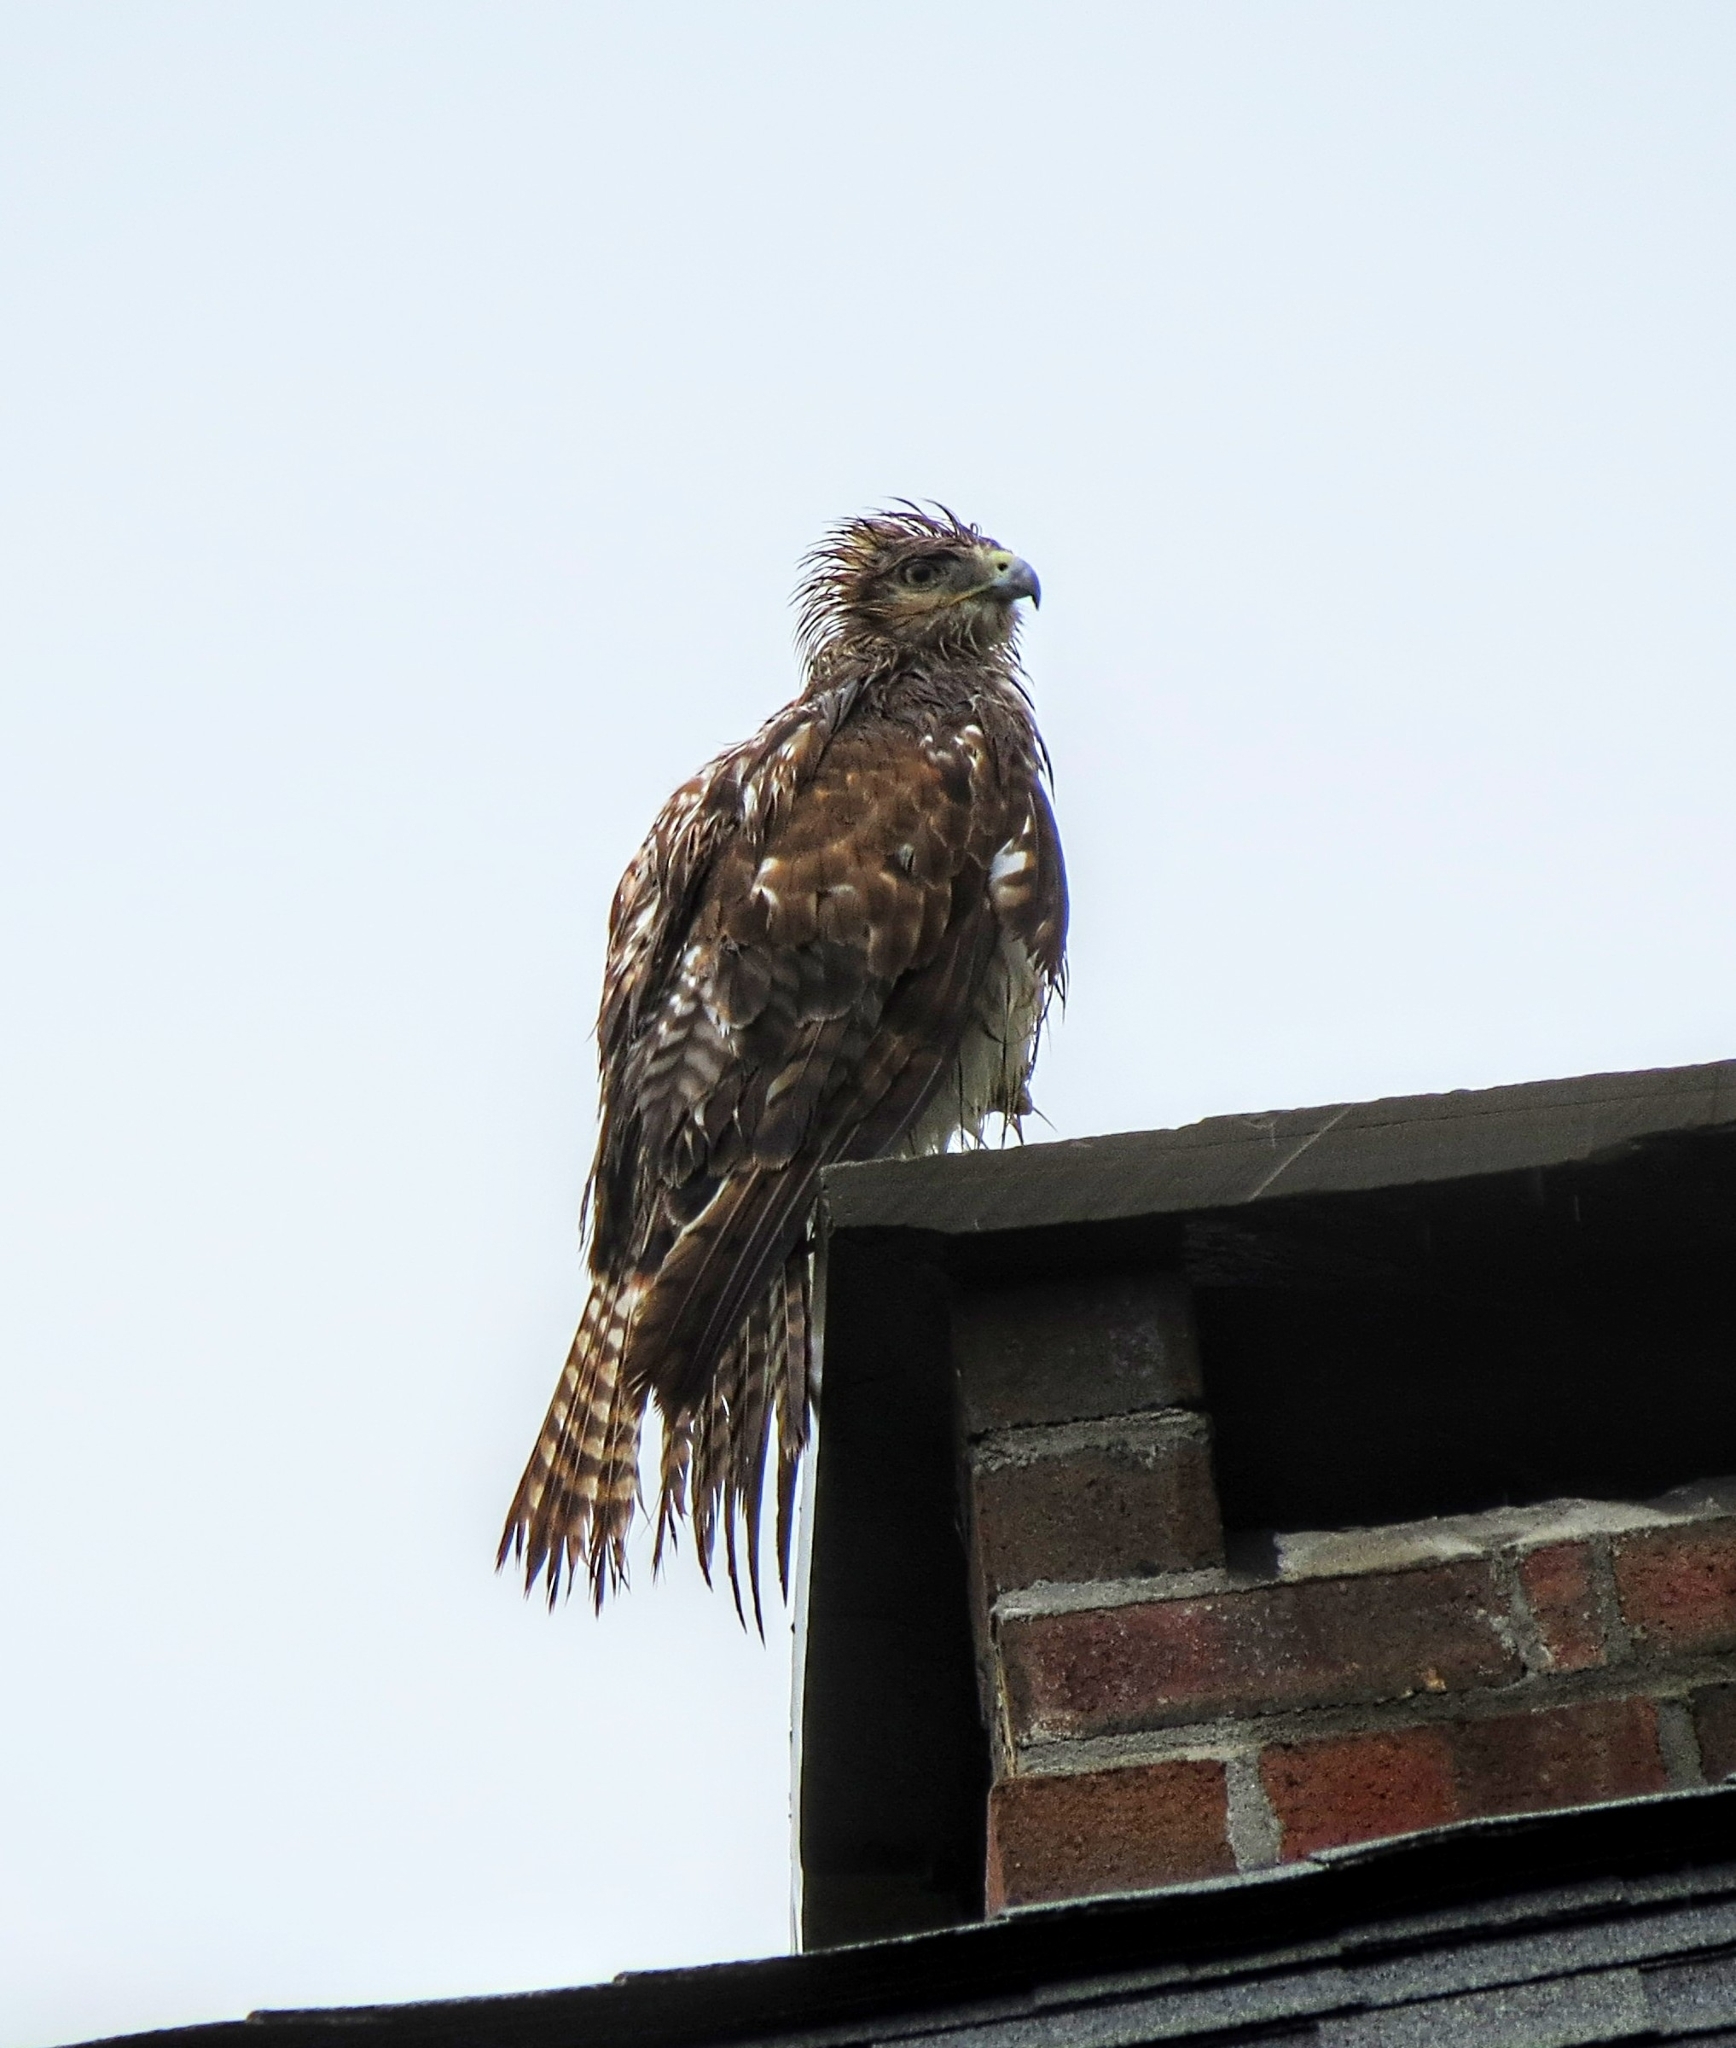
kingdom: Animalia
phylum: Chordata
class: Aves
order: Accipitriformes
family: Accipitridae
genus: Buteo
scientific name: Buteo jamaicensis
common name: Red-tailed hawk
